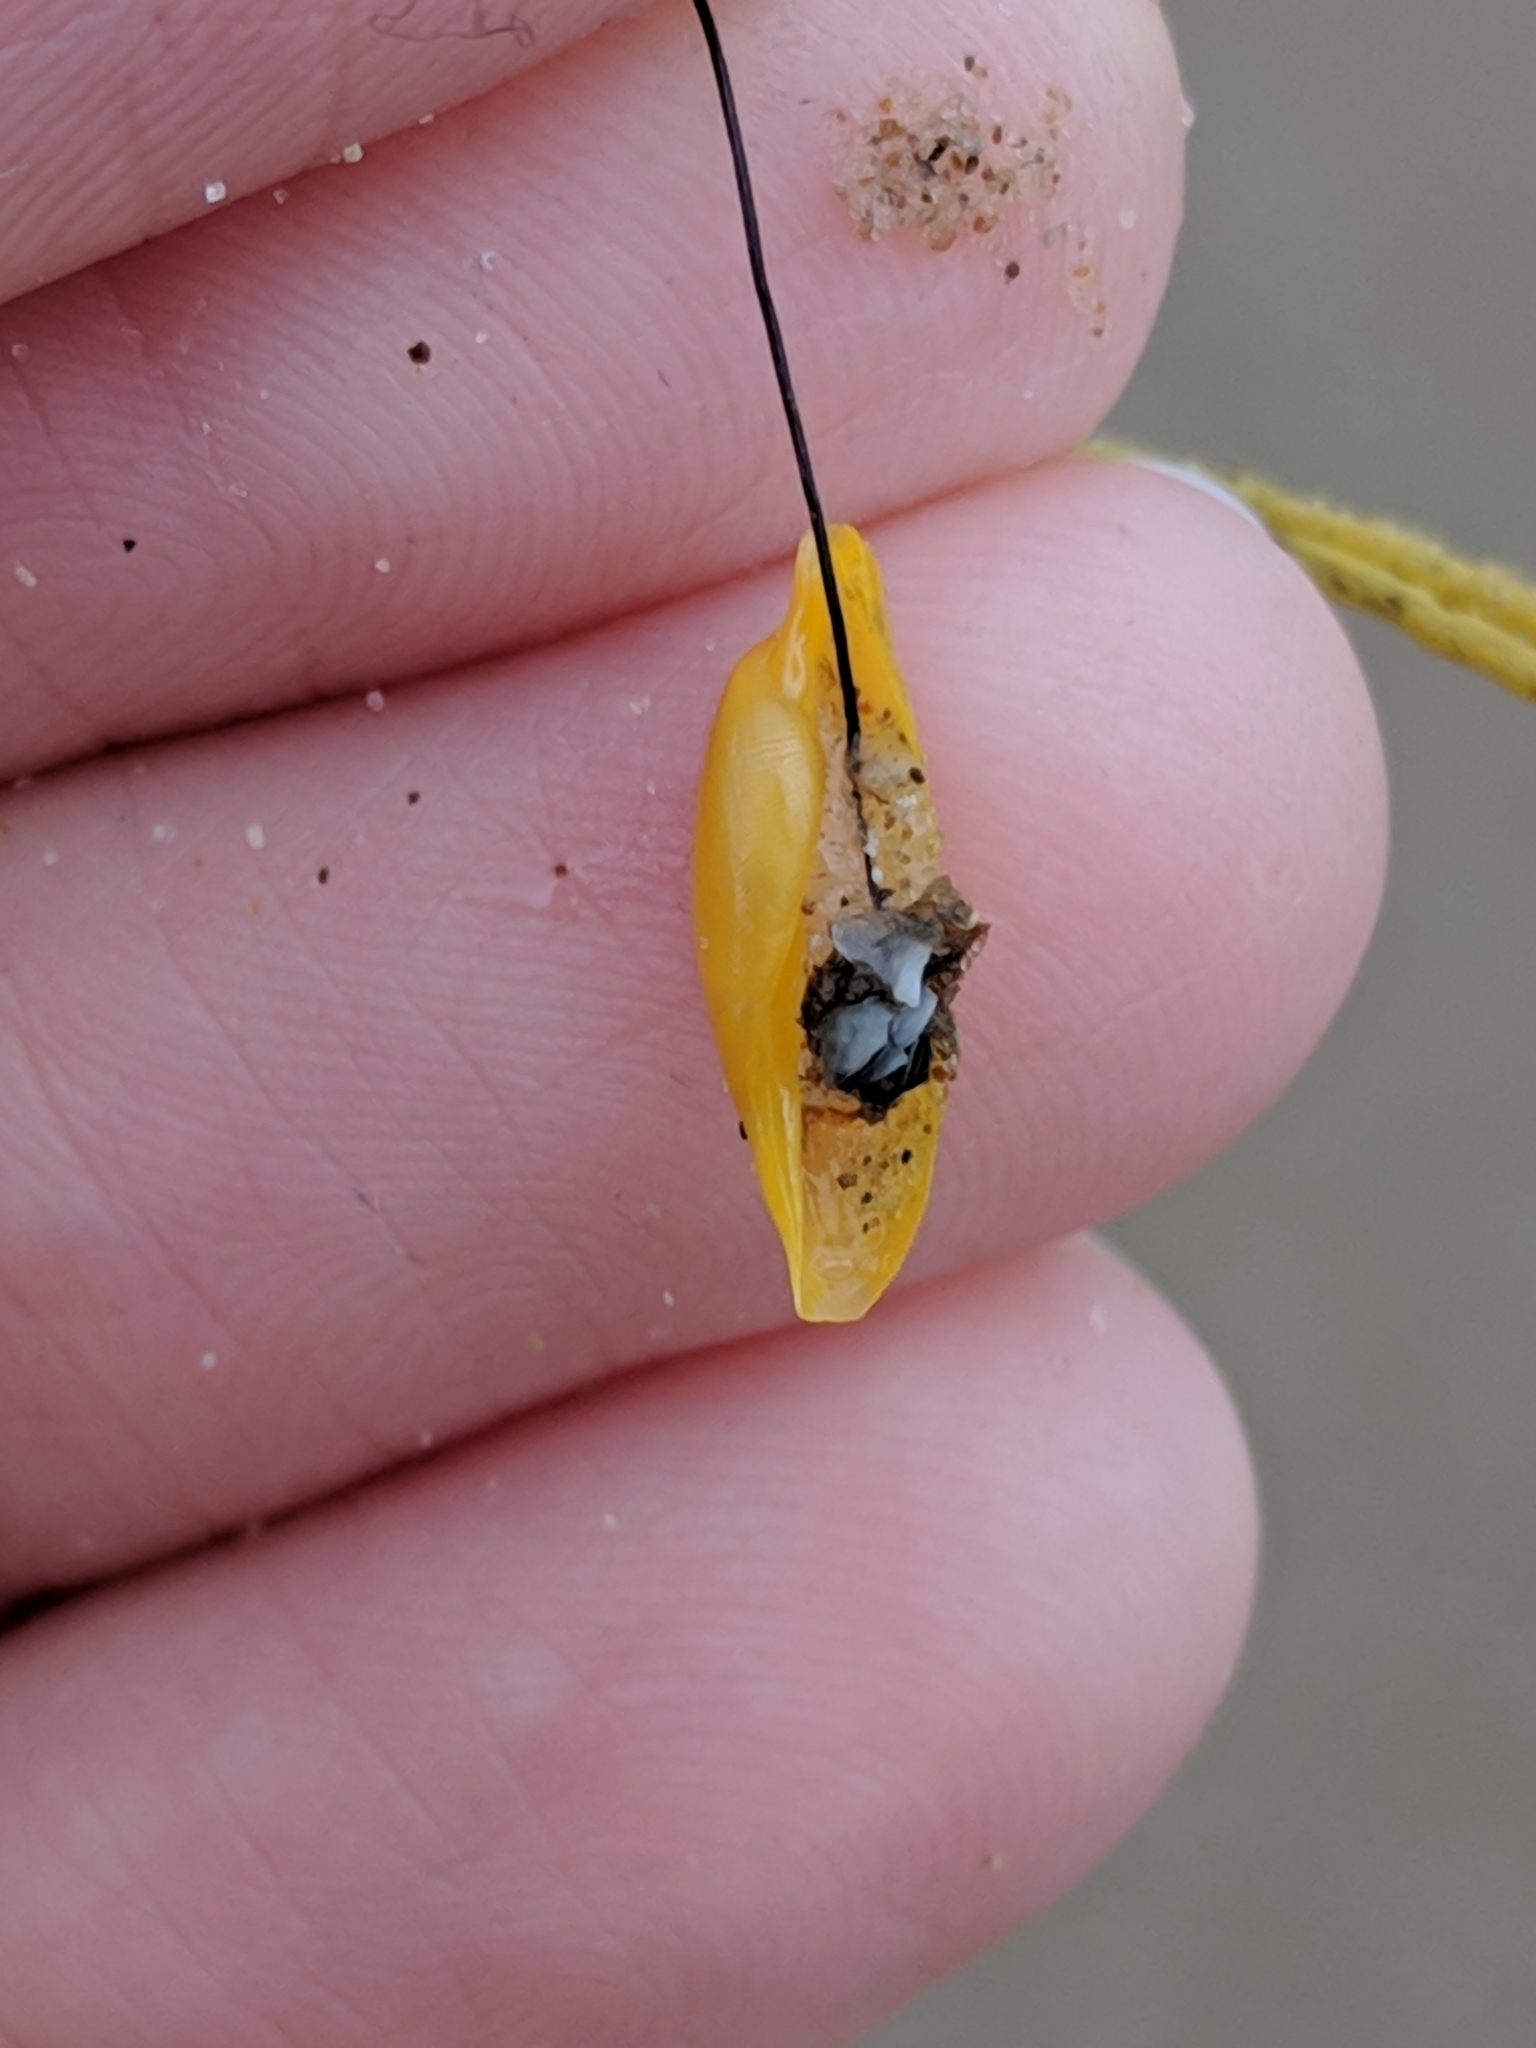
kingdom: Animalia
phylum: Mollusca
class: Gastropoda
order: Littorinimorpha
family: Ovulidae
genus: Simnialena
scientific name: Simnialena uniplicata
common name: One-tooth simnia
